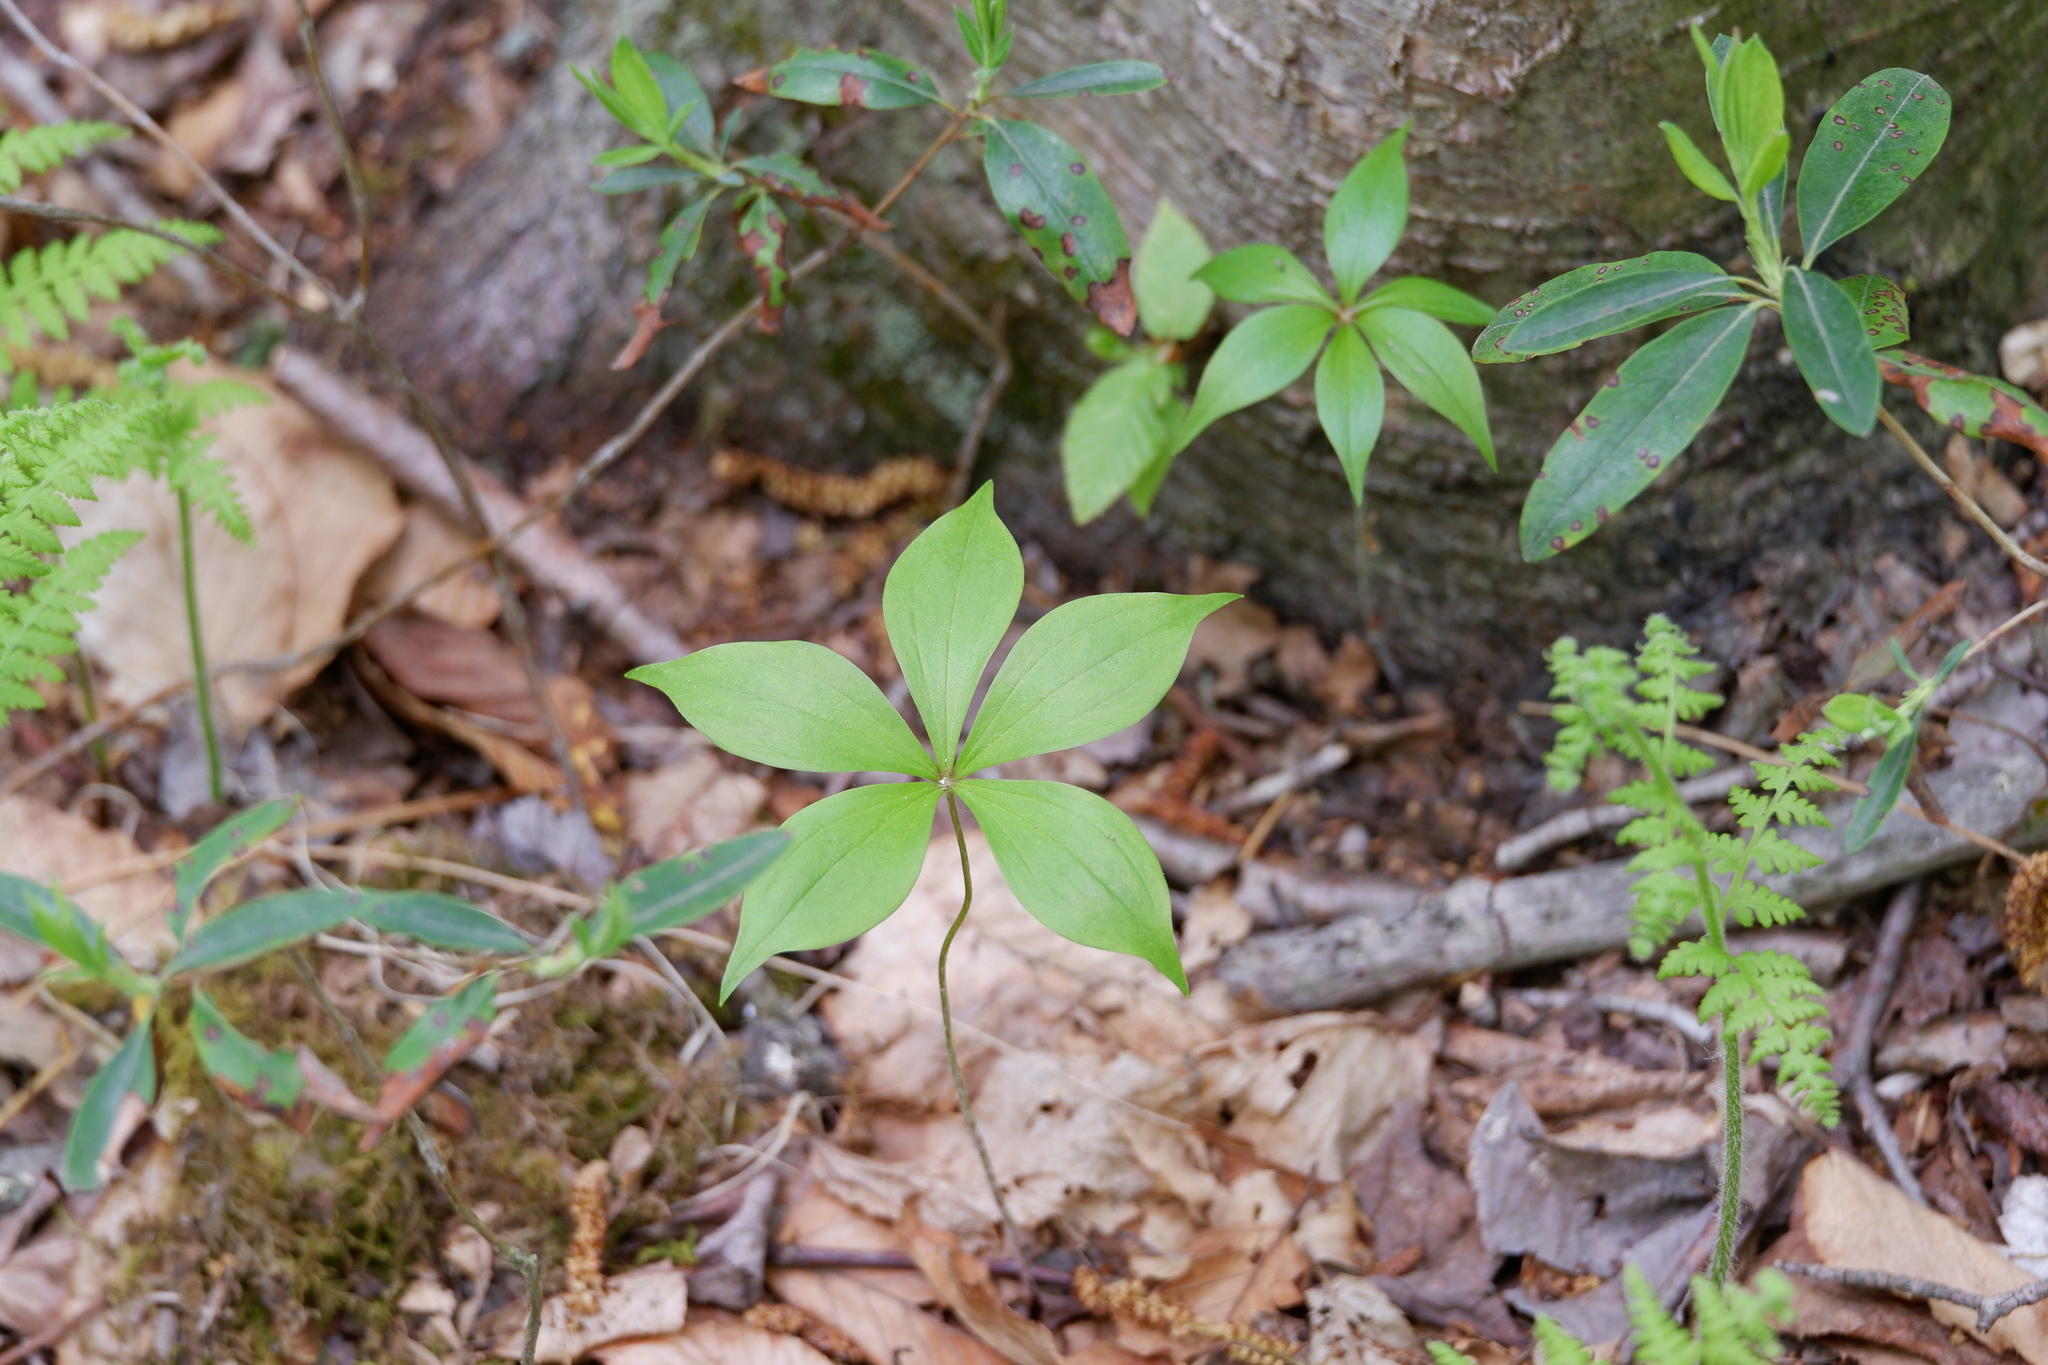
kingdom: Plantae
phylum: Tracheophyta
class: Liliopsida
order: Liliales
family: Liliaceae
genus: Medeola
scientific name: Medeola virginiana
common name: Indian cucumber-root
